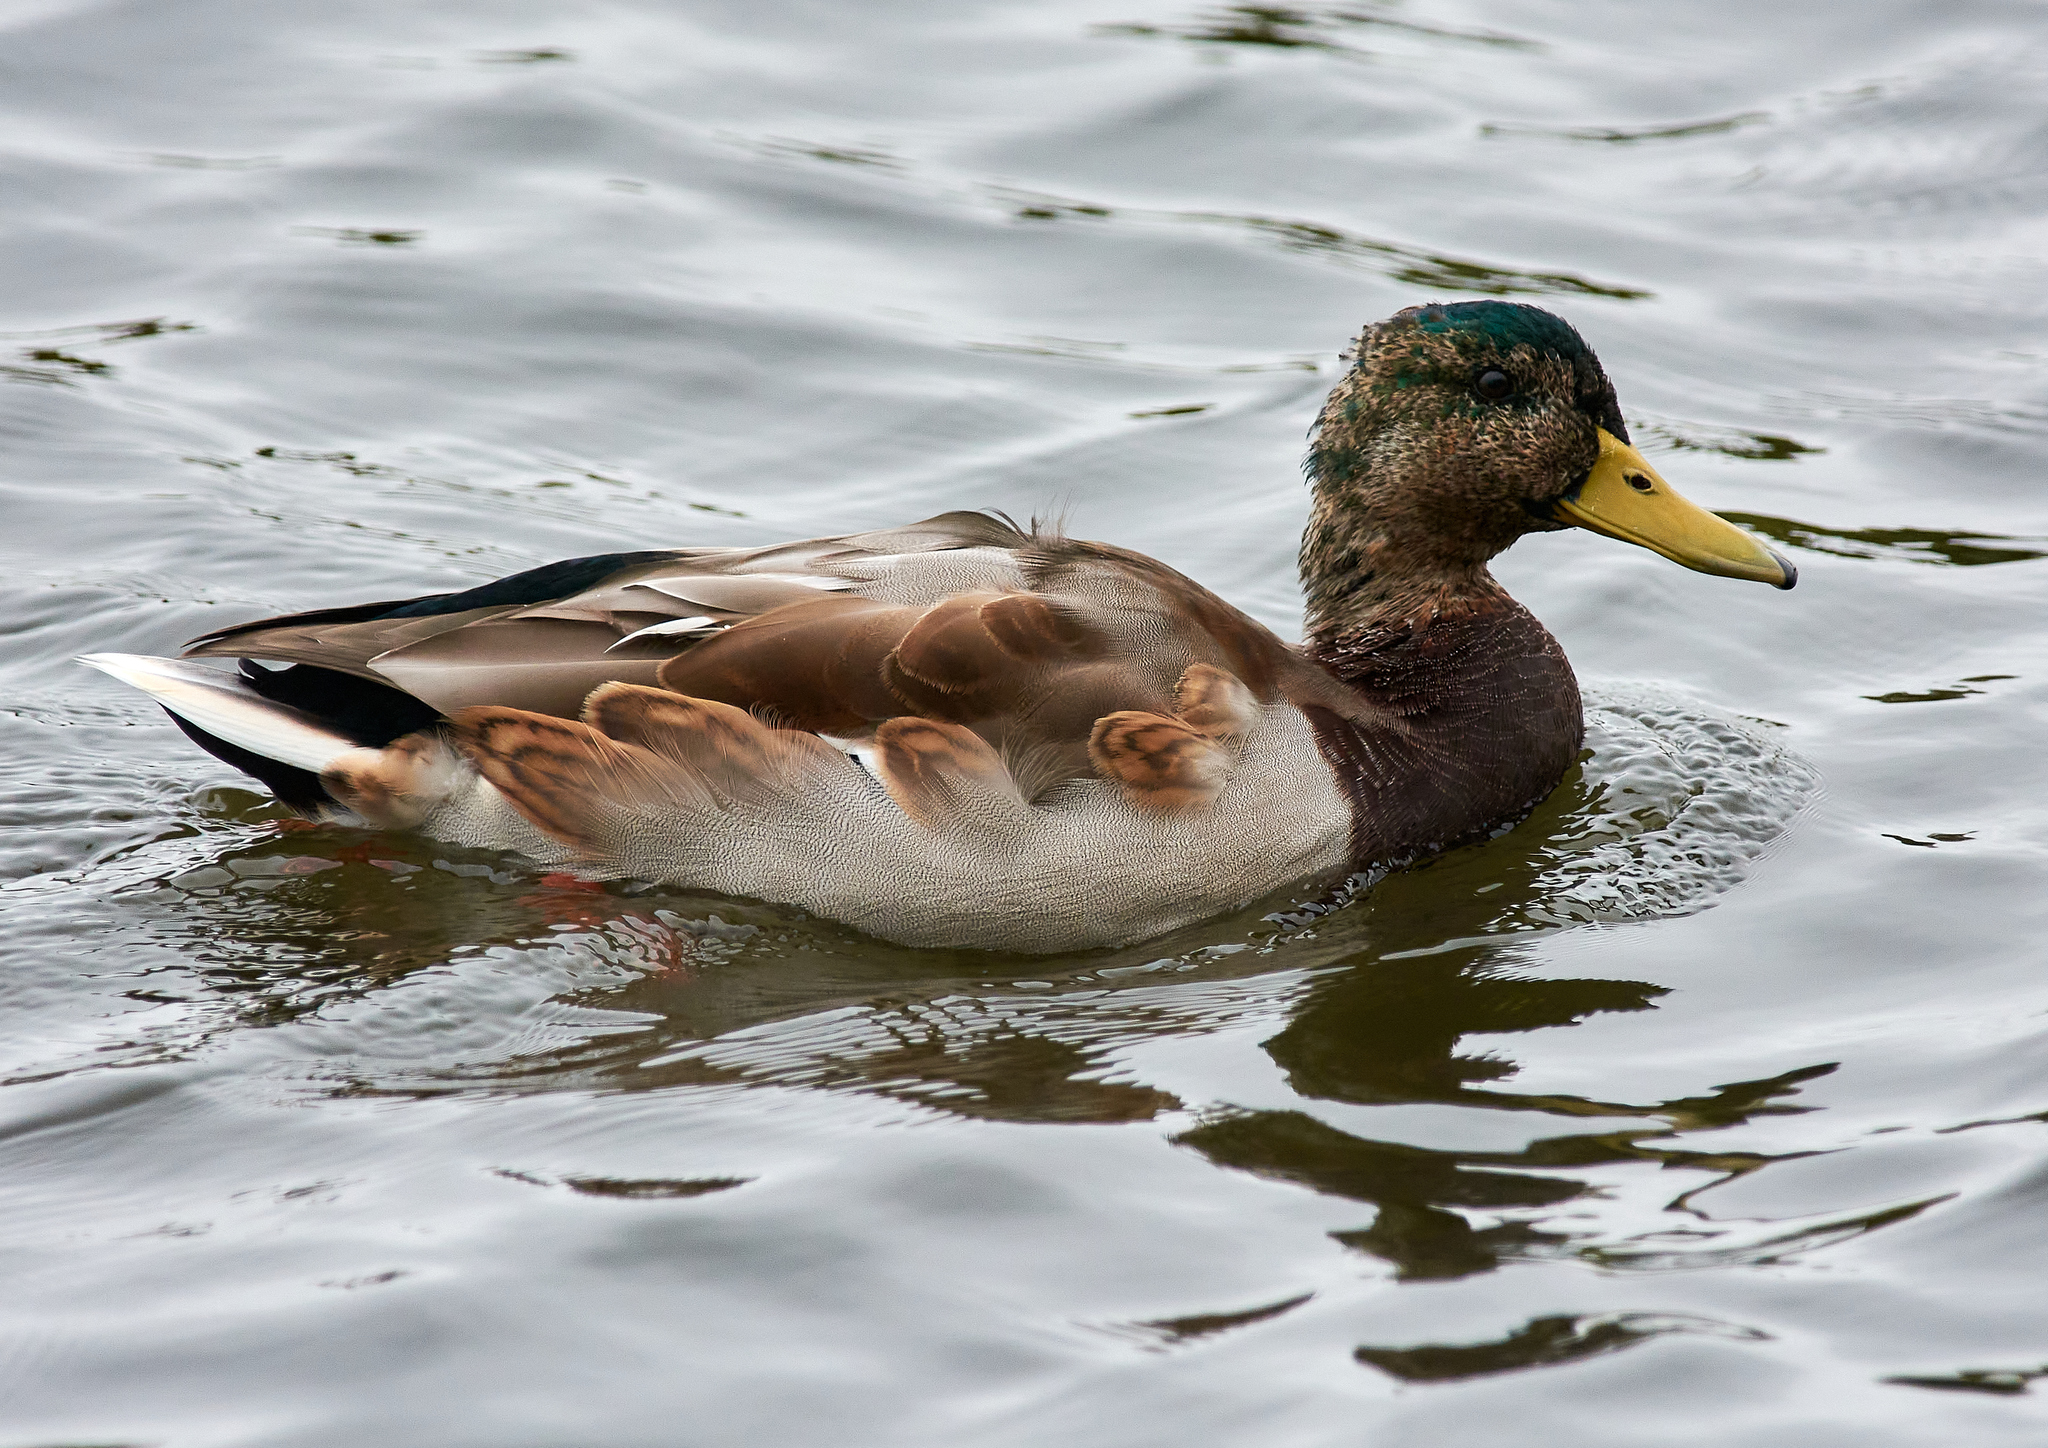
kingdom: Animalia
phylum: Chordata
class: Aves
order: Anseriformes
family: Anatidae
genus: Anas
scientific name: Anas platyrhynchos
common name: Mallard
